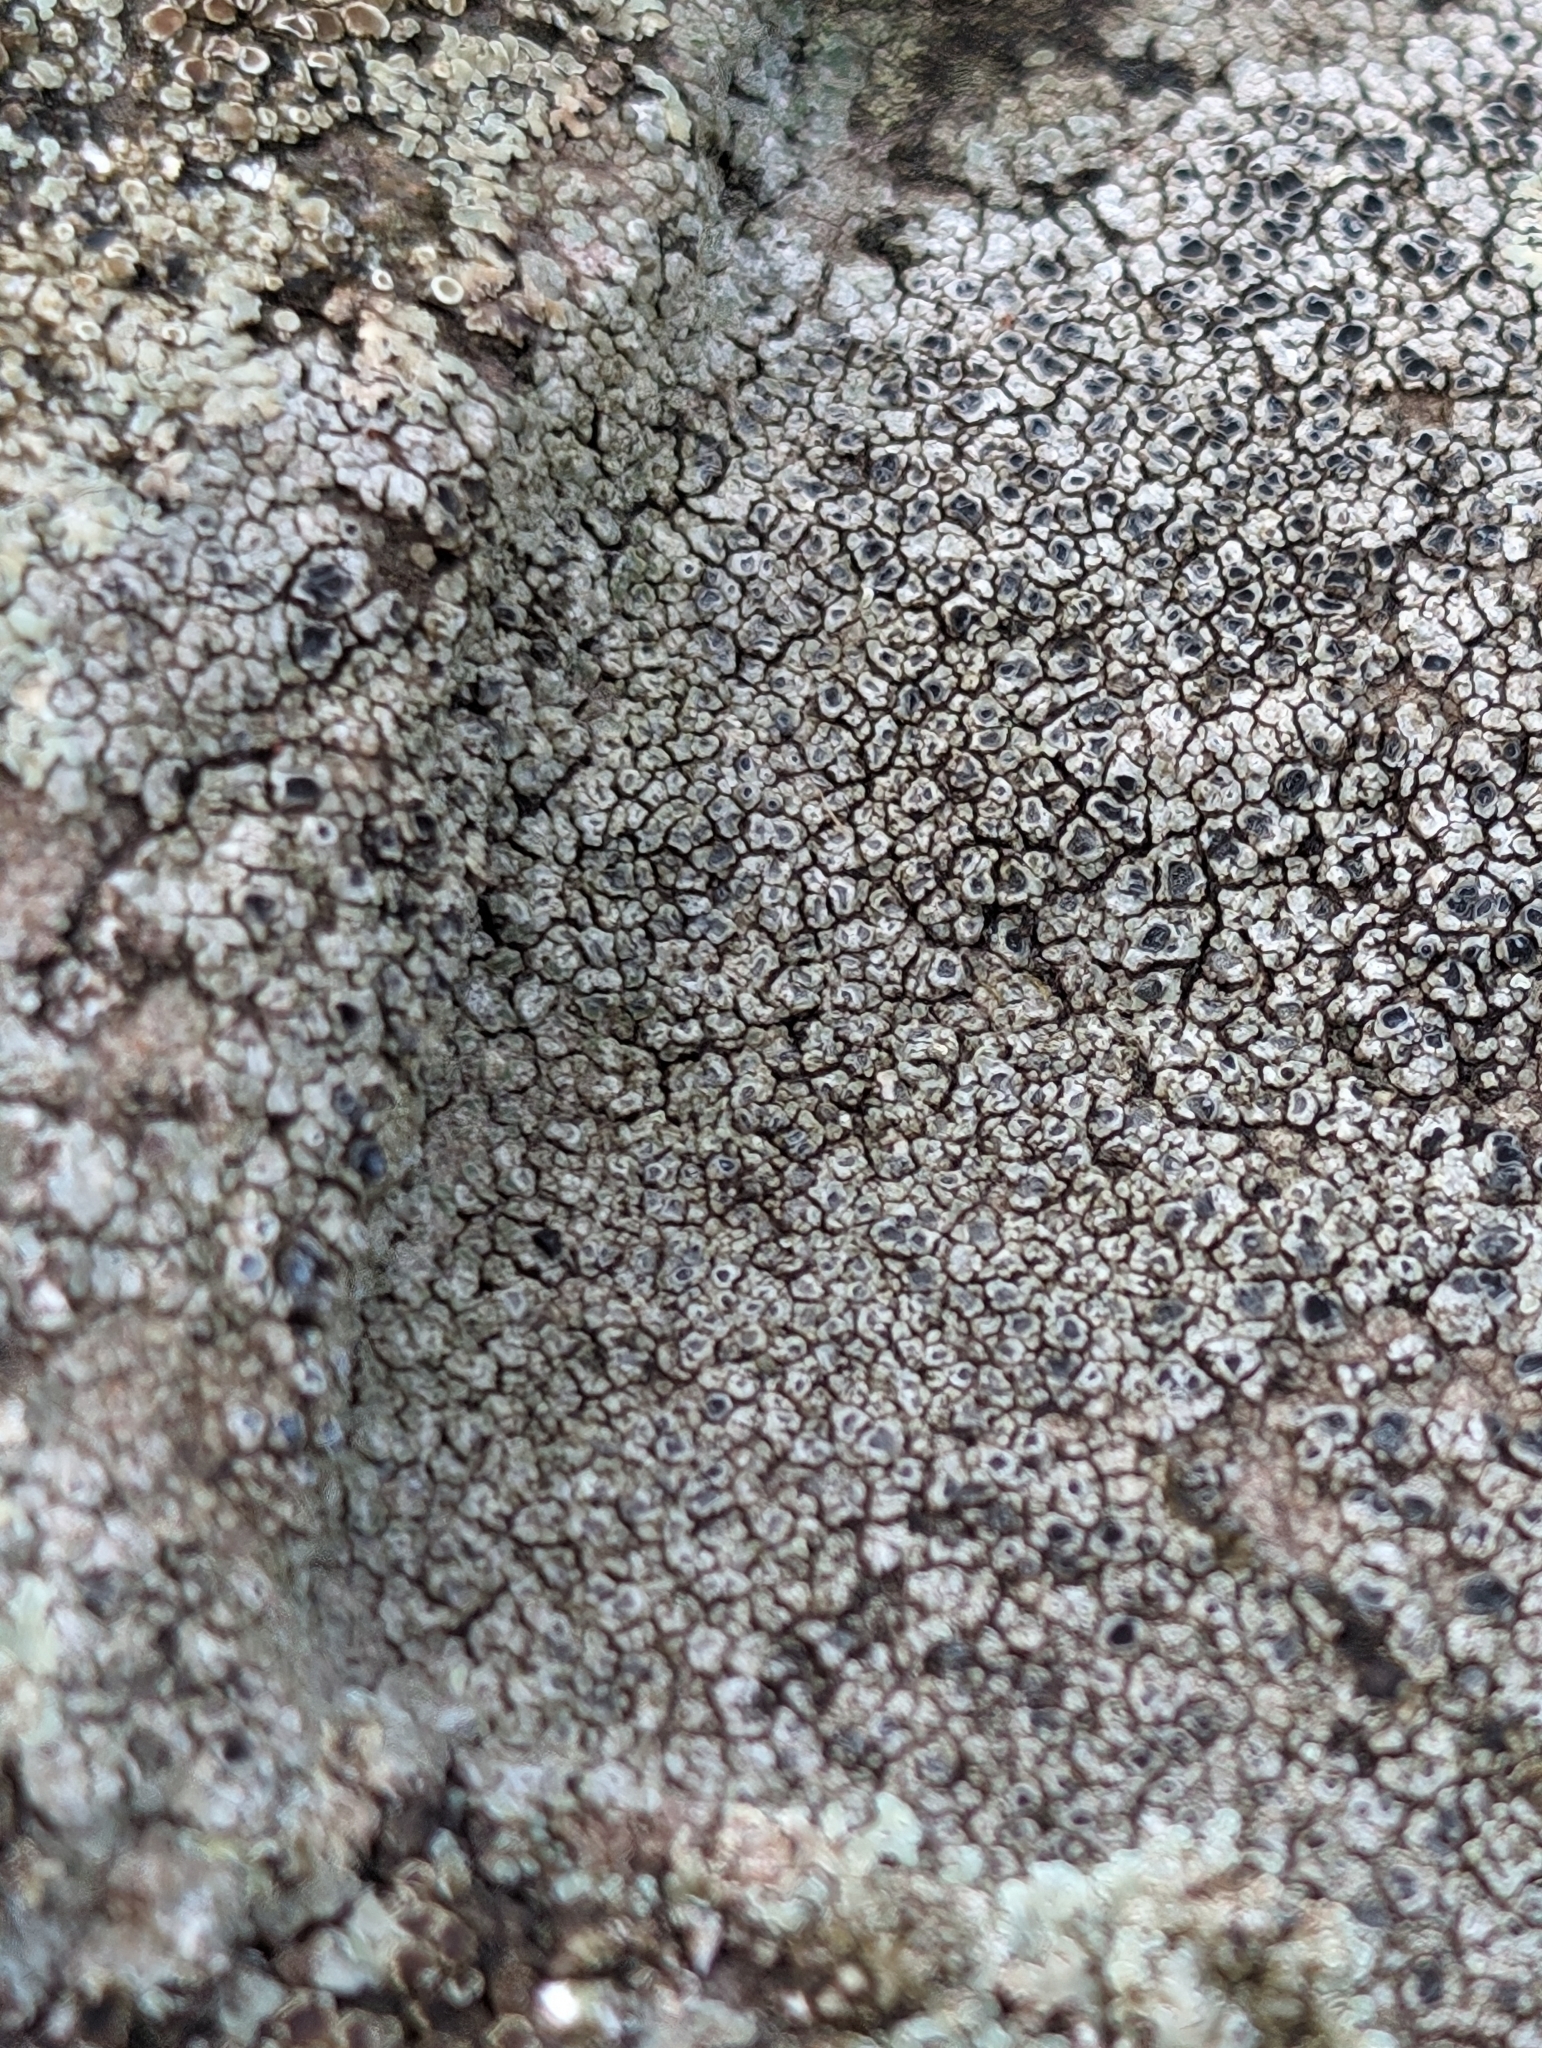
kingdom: Fungi
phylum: Ascomycota
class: Lecanoromycetes
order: Pertusariales
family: Megasporaceae
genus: Circinaria
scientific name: Circinaria contorta
